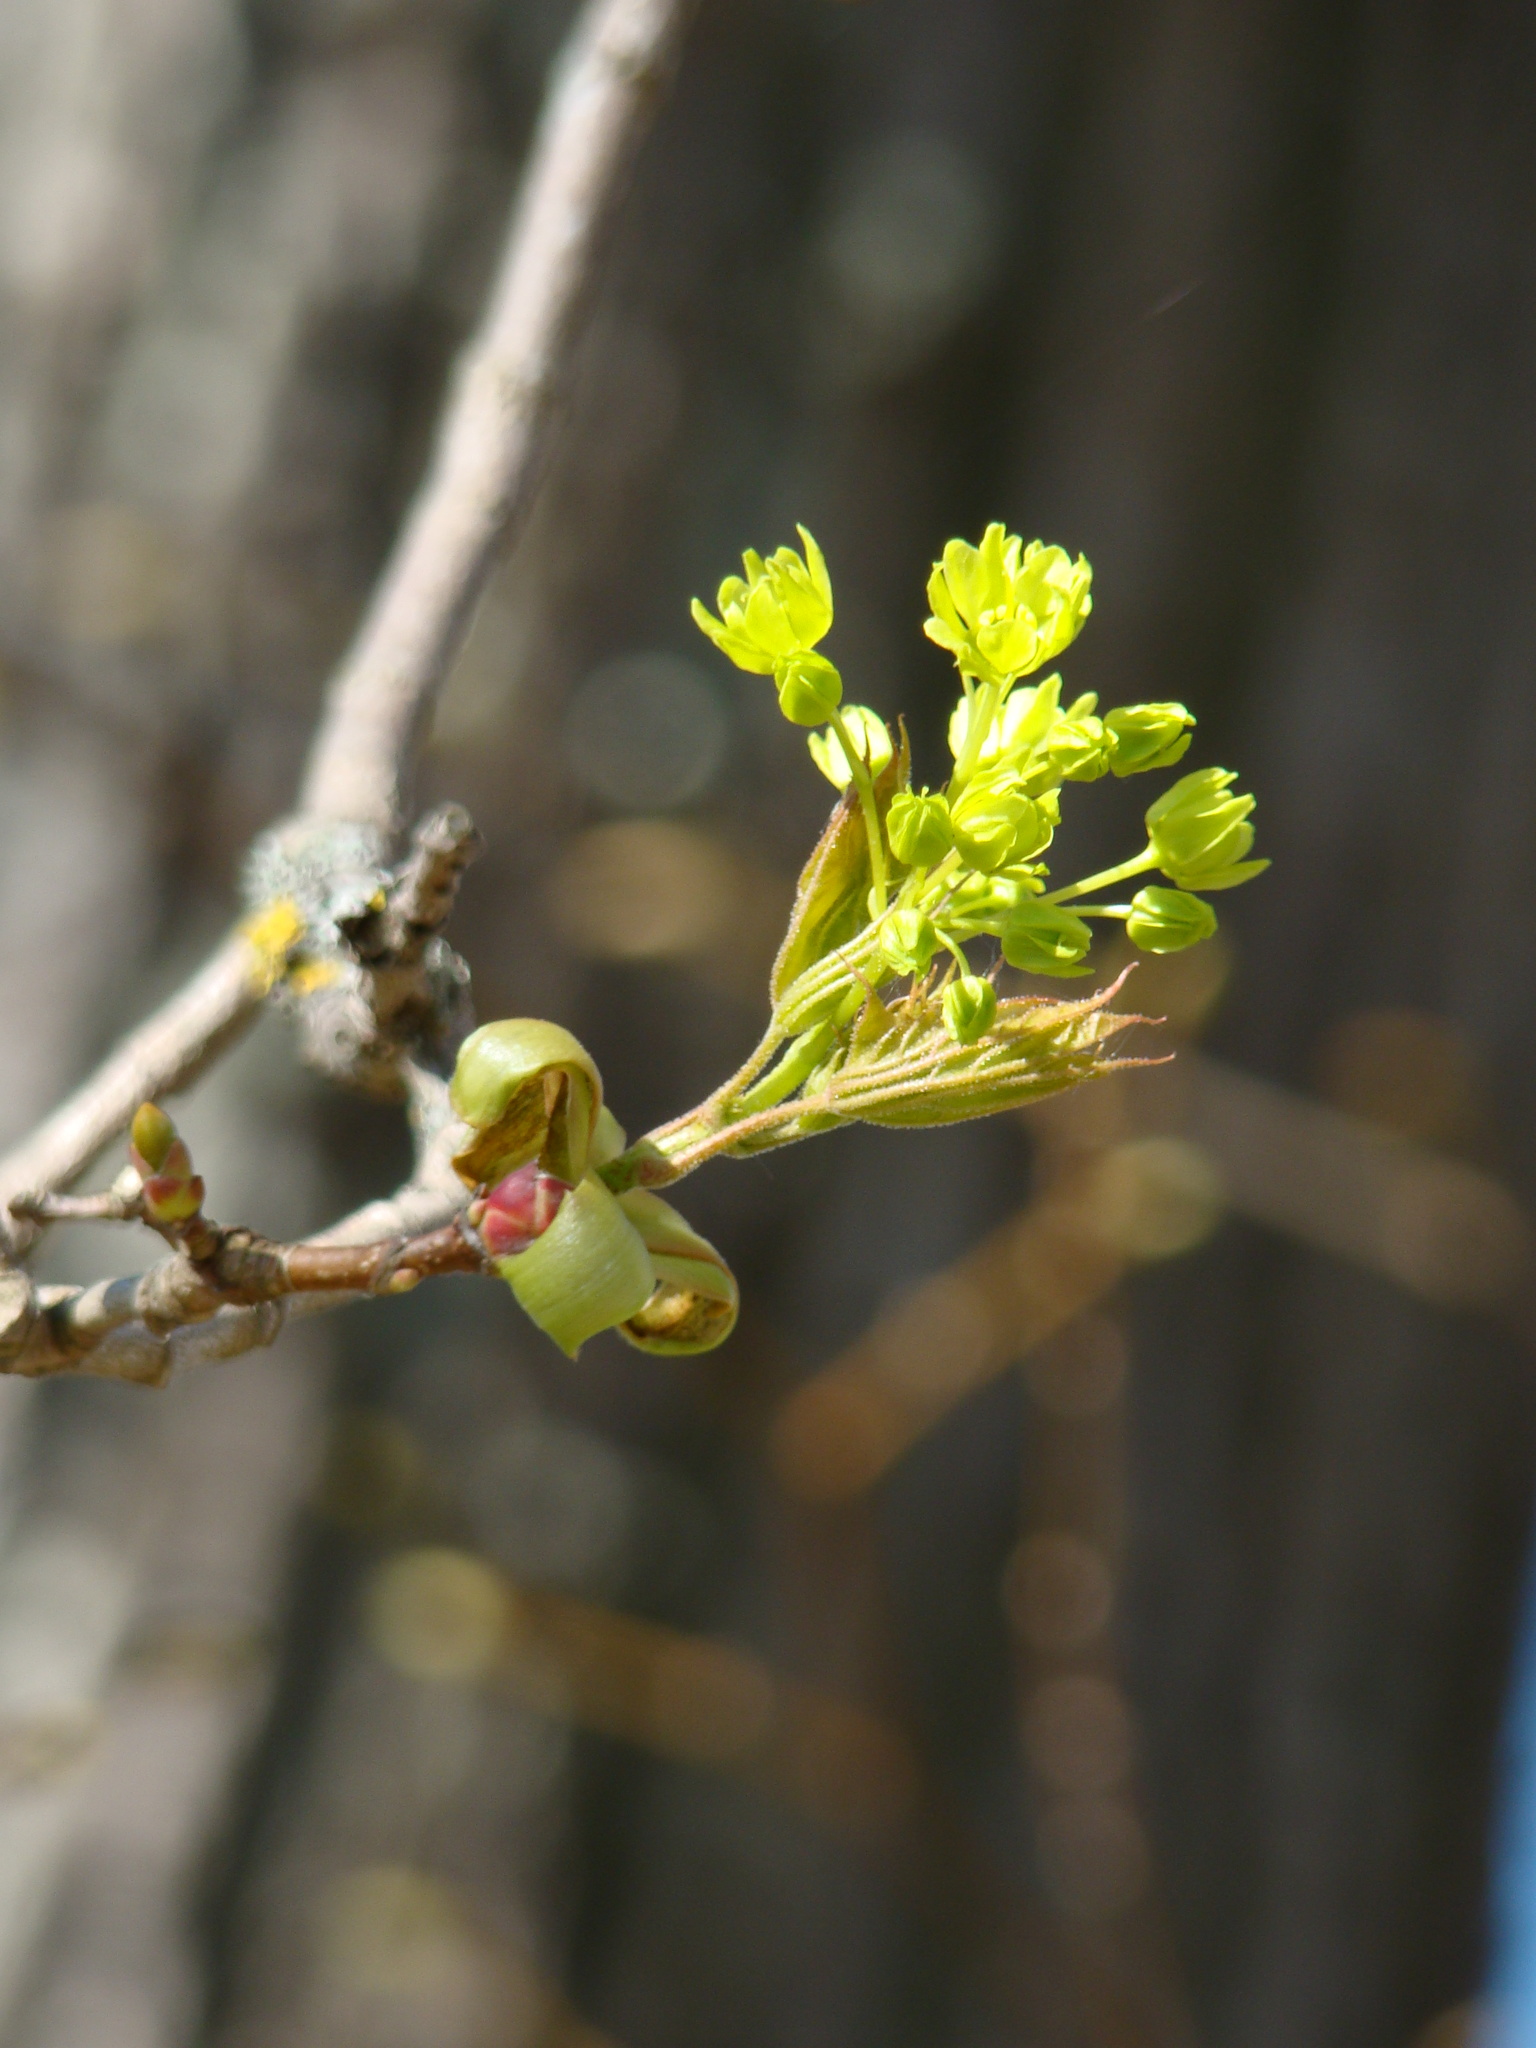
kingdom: Plantae
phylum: Tracheophyta
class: Magnoliopsida
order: Sapindales
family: Sapindaceae
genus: Acer
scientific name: Acer platanoides
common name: Norway maple
